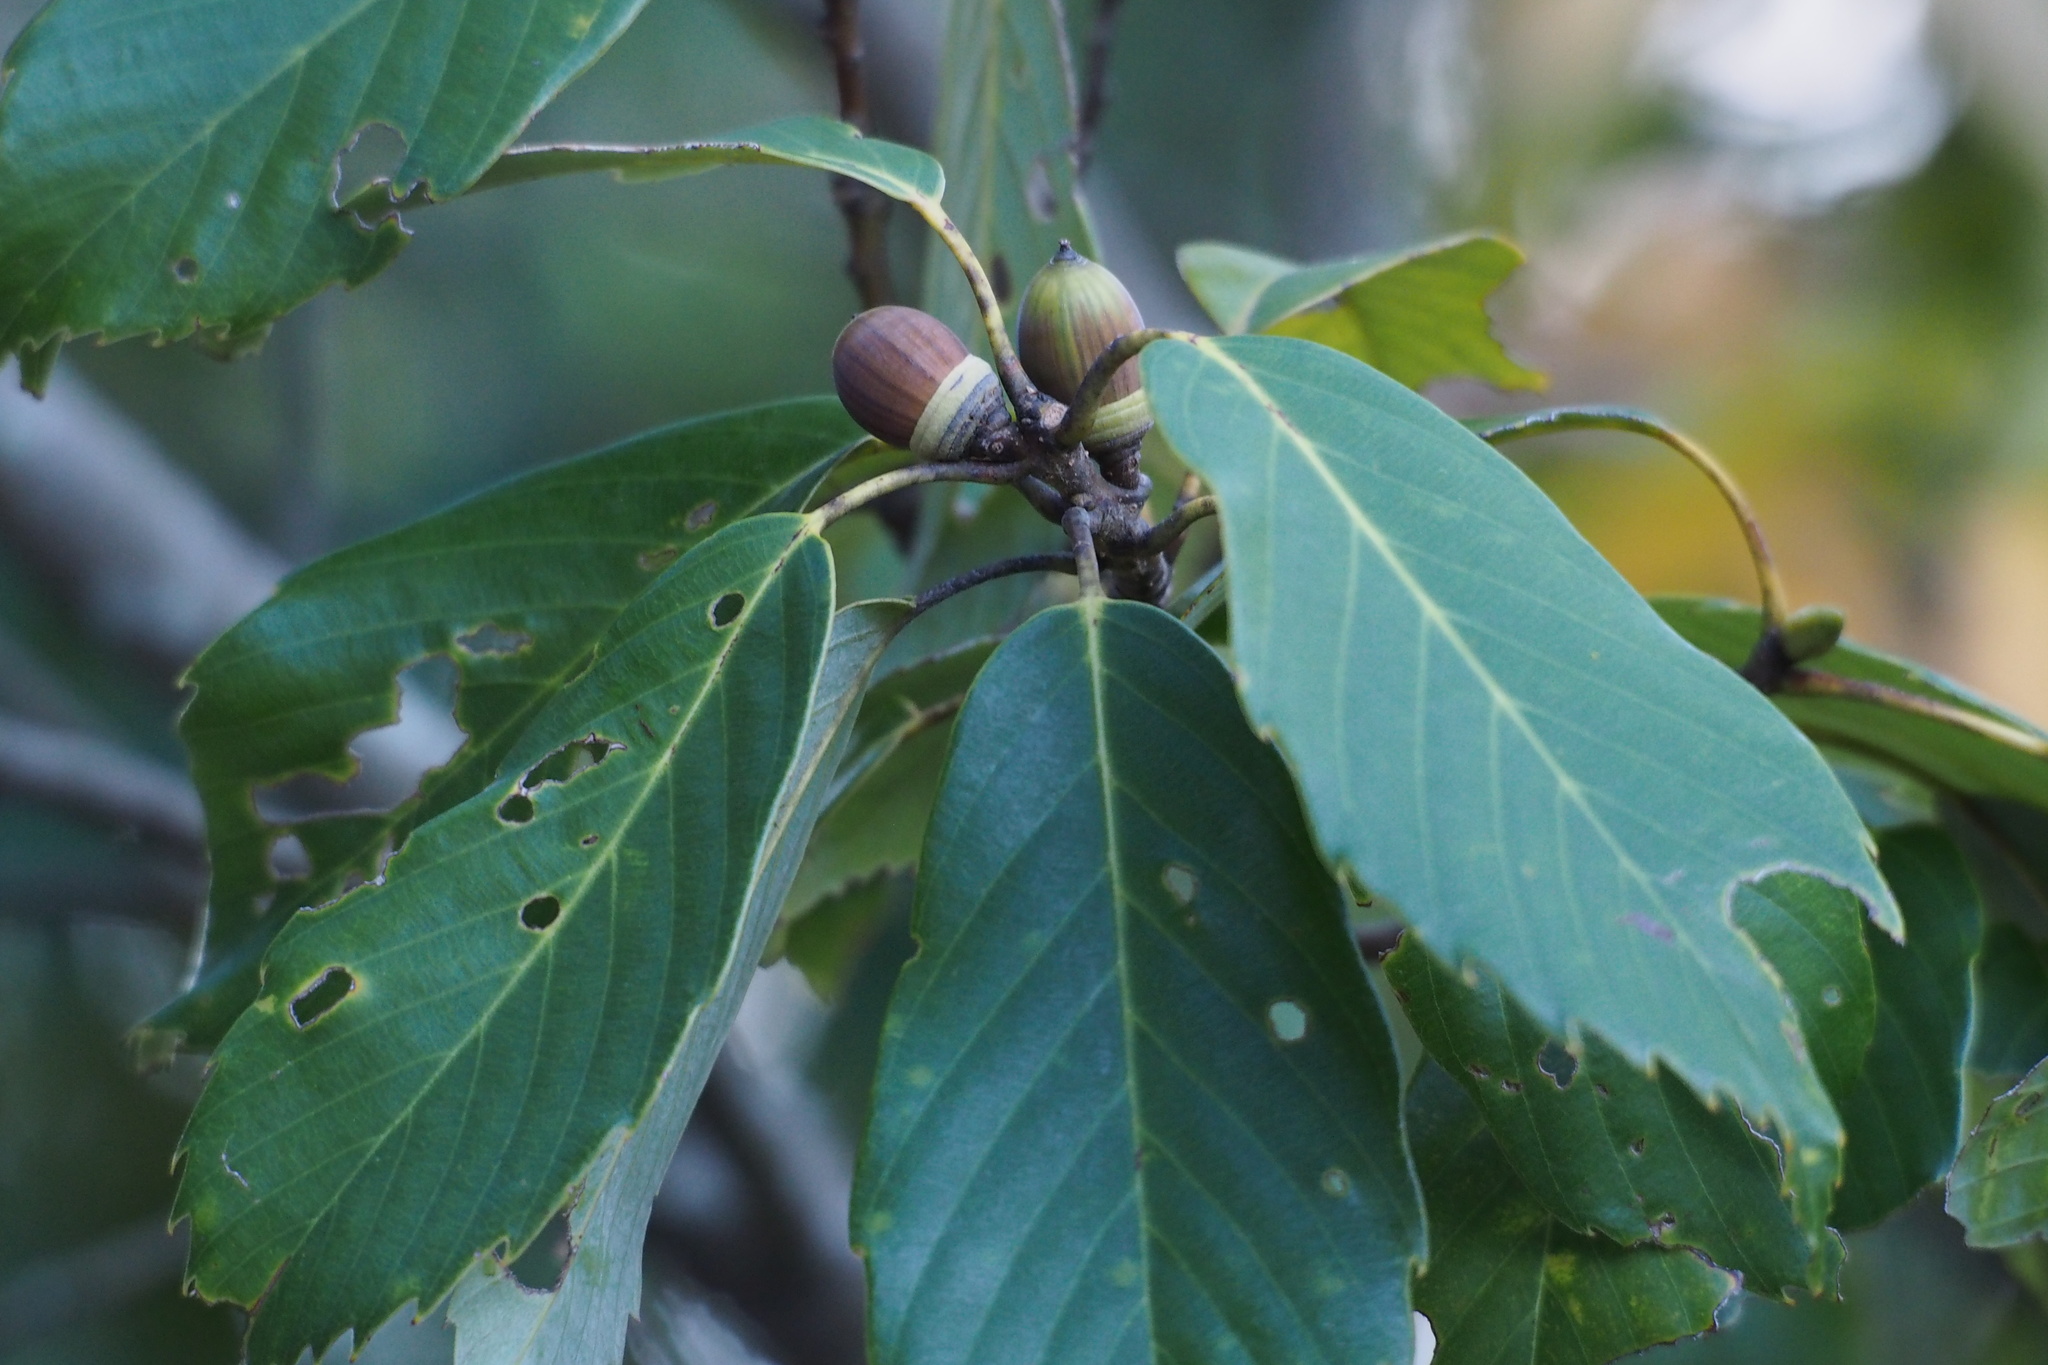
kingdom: Plantae
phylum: Tracheophyta
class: Magnoliopsida
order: Fagales
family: Fagaceae
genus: Quercus
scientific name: Quercus glauca
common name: Ring-cup oak
